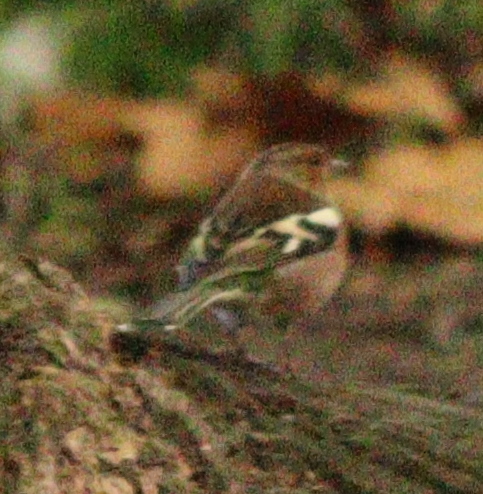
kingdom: Animalia
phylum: Chordata
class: Aves
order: Passeriformes
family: Fringillidae
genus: Fringilla
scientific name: Fringilla coelebs
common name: Common chaffinch
